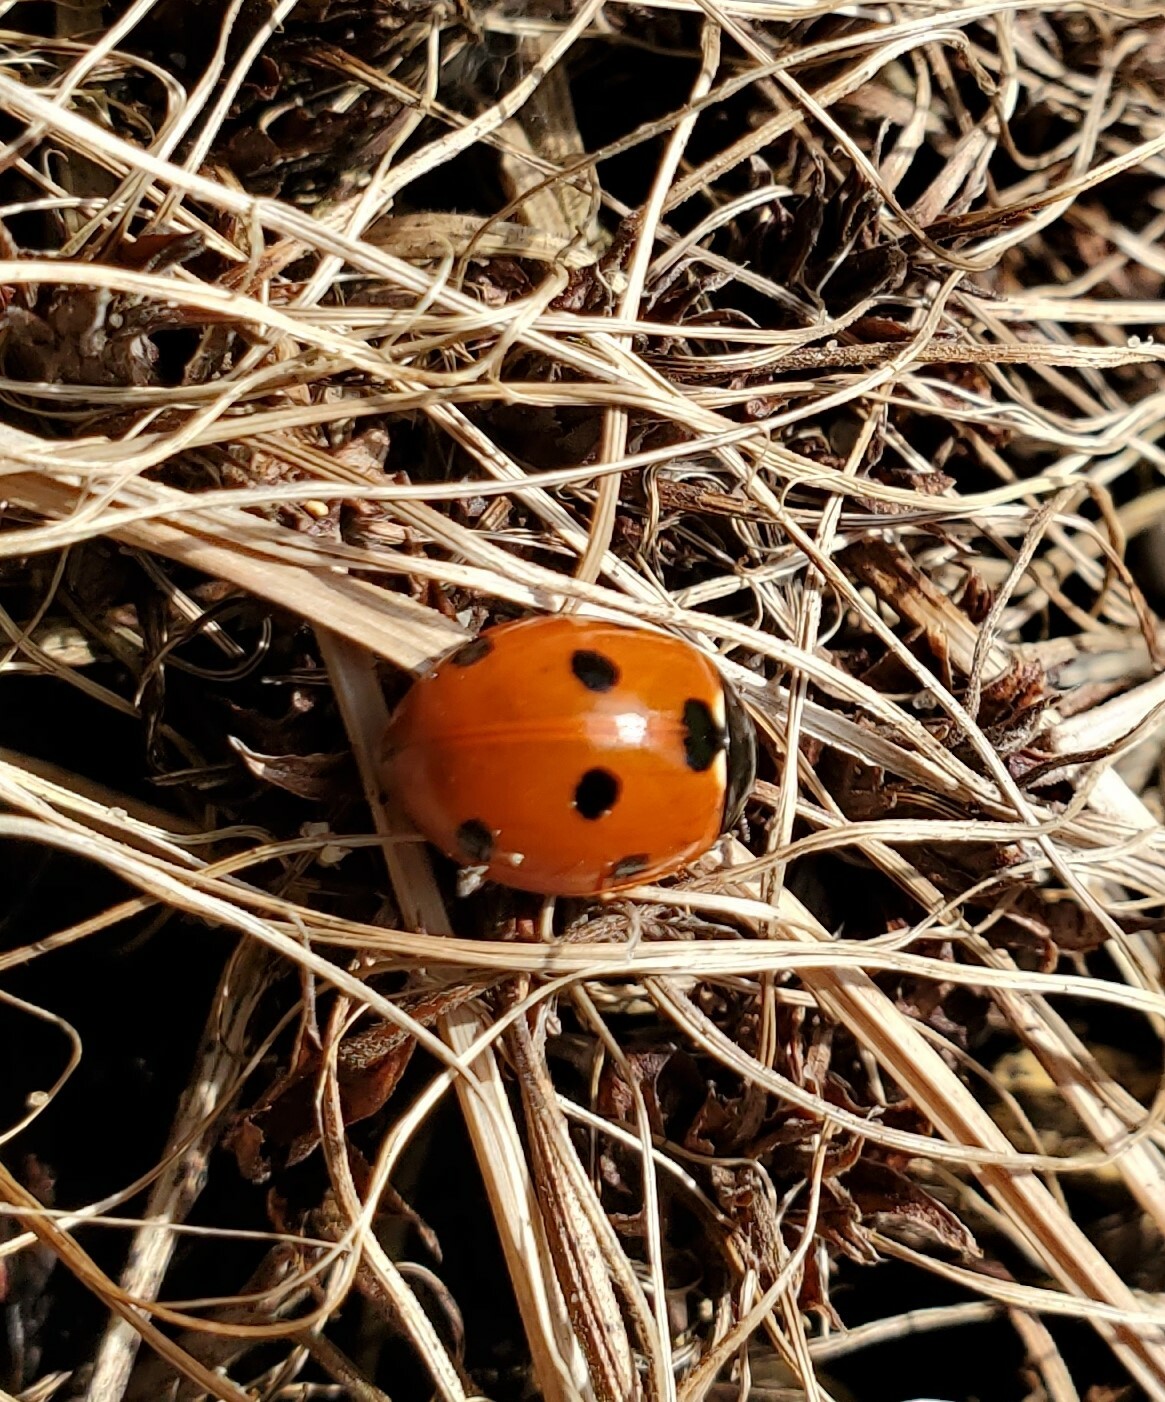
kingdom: Animalia
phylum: Arthropoda
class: Insecta
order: Coleoptera
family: Coccinellidae
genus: Coccinella
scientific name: Coccinella septempunctata
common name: Sevenspotted lady beetle
